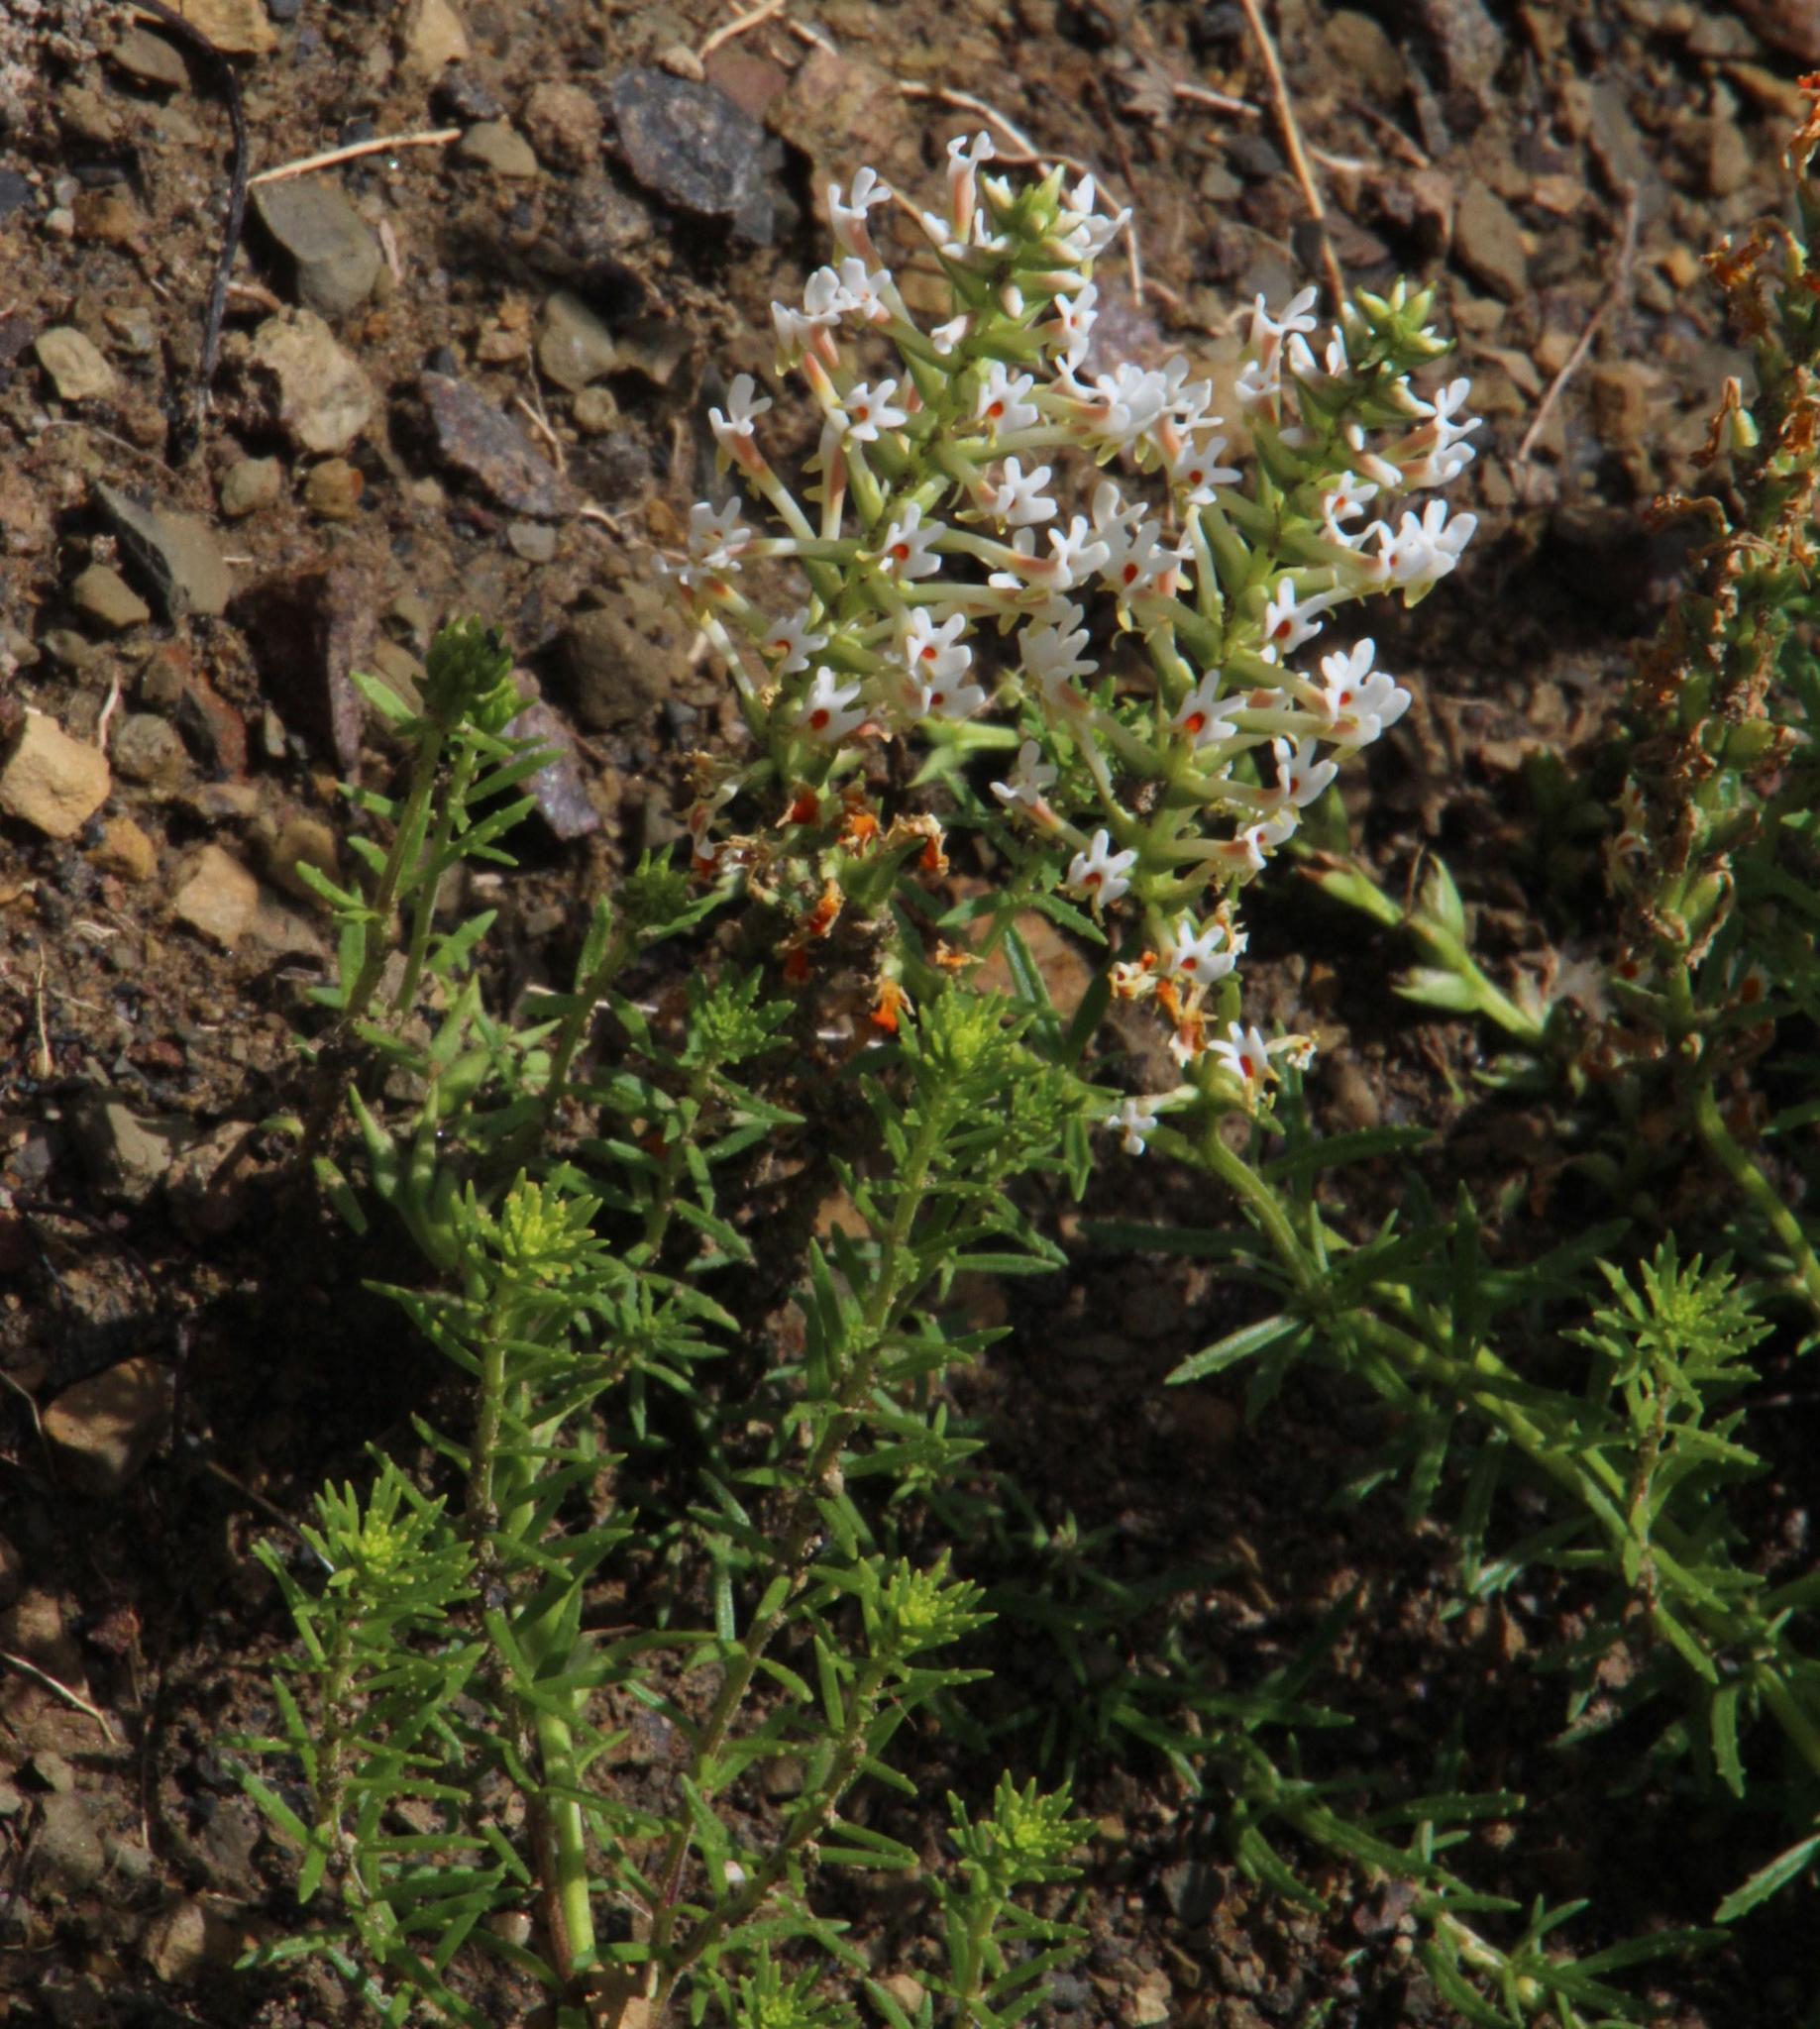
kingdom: Plantae
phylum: Tracheophyta
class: Magnoliopsida
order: Lamiales
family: Scrophulariaceae
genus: Hebenstretia
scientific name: Hebenstretia robusta
